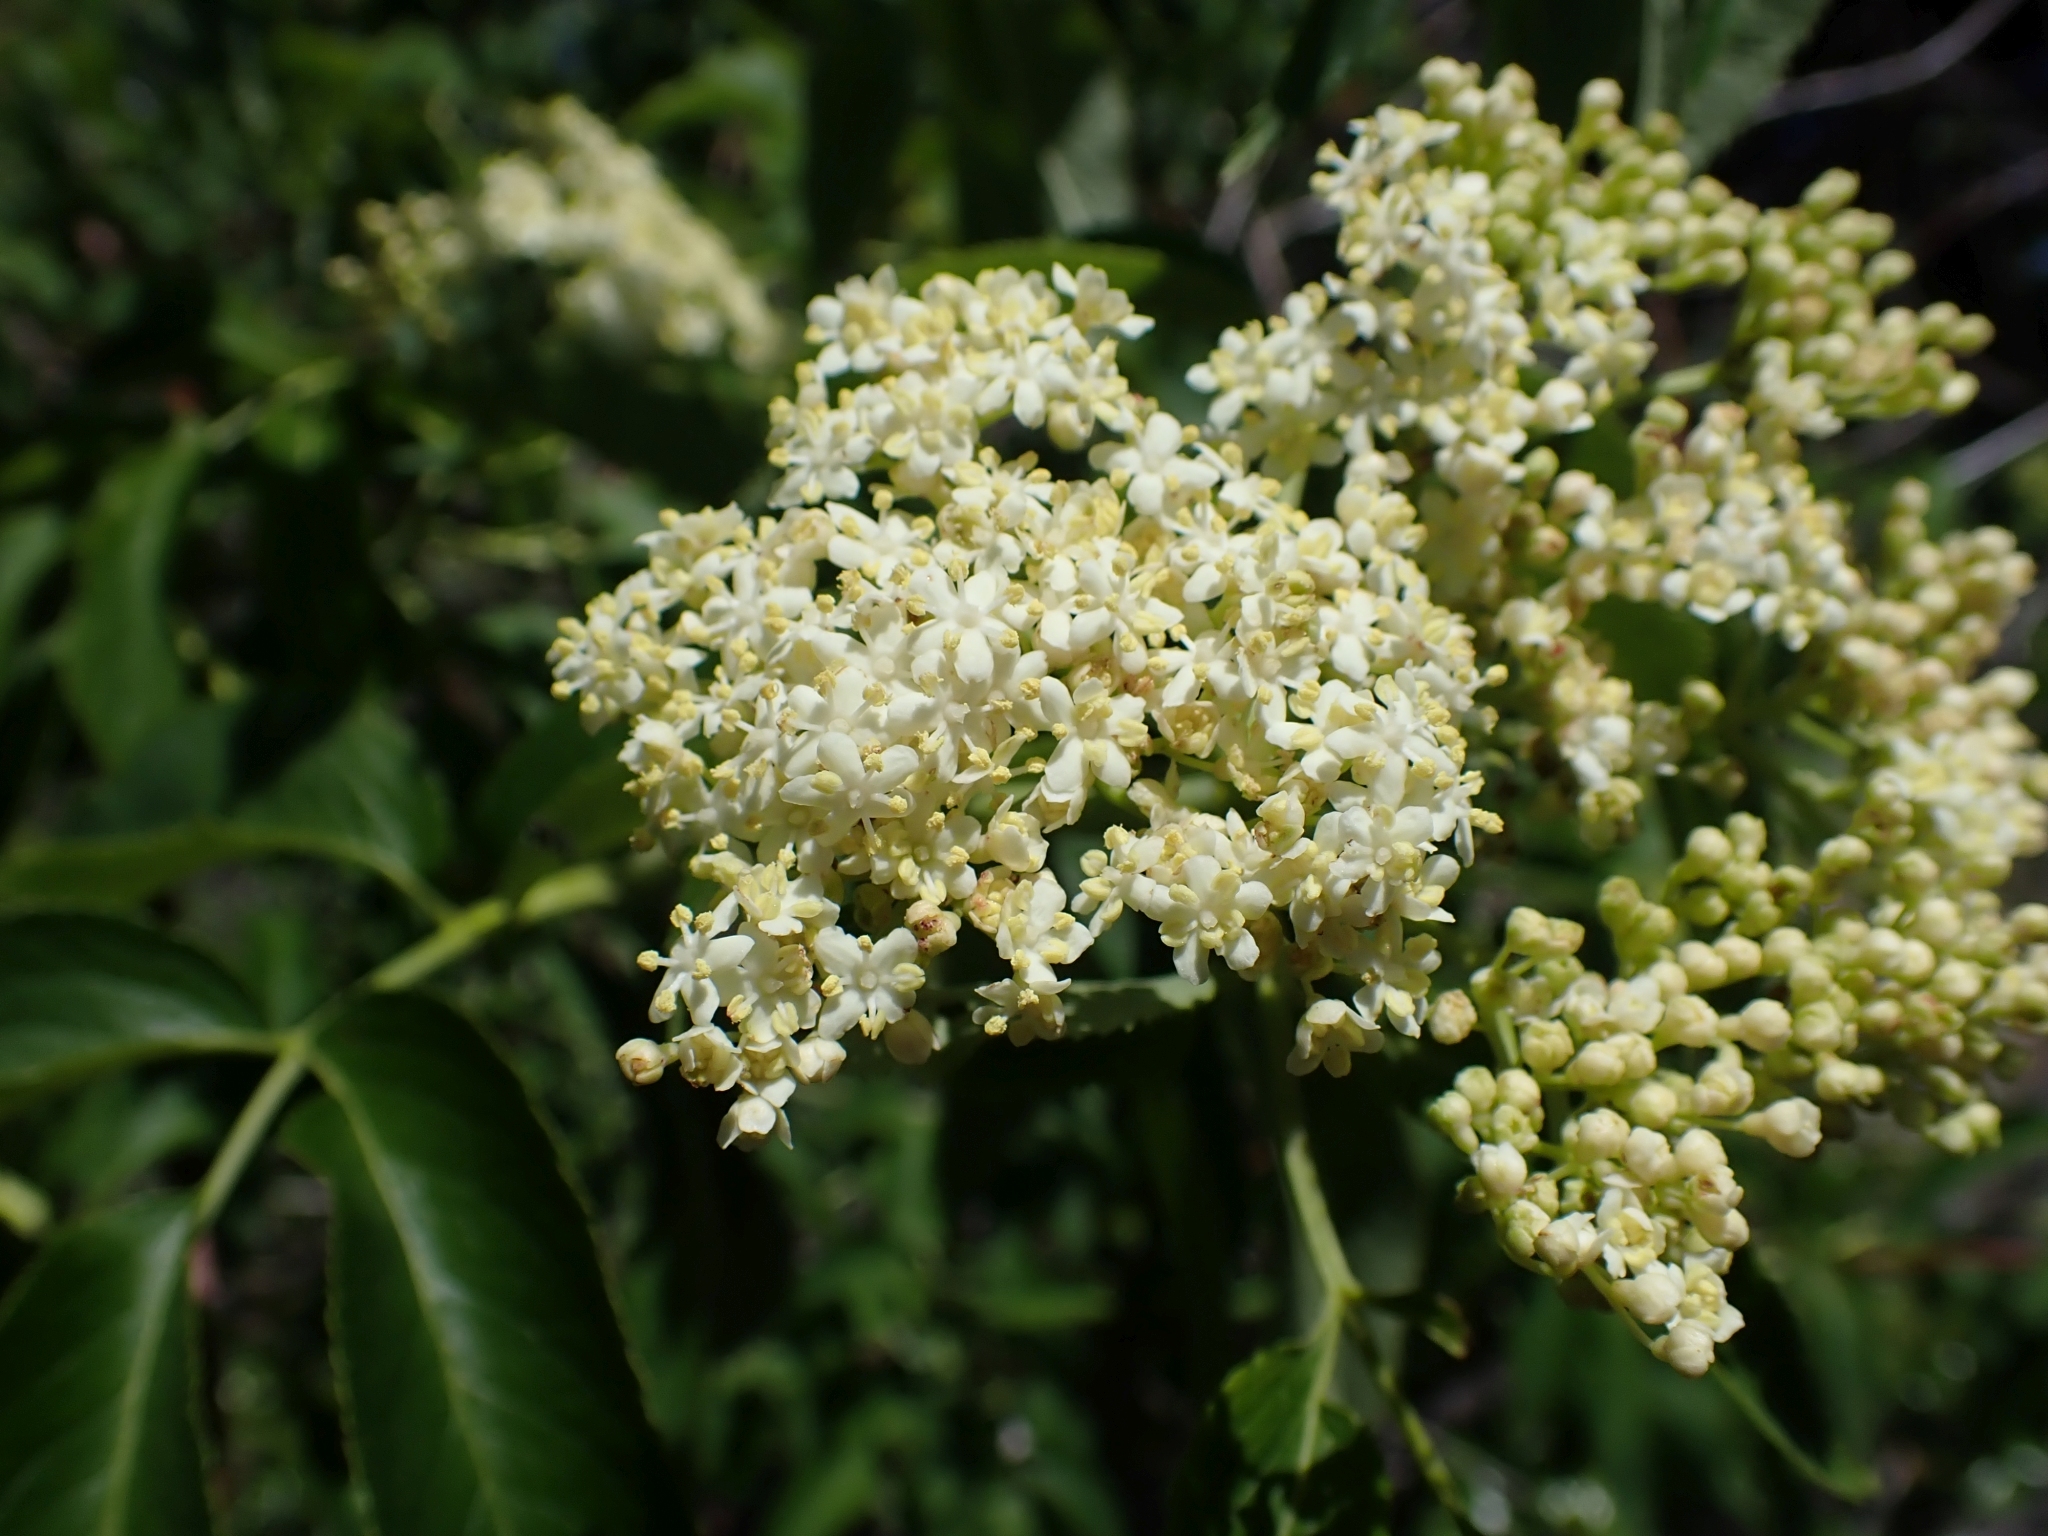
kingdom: Plantae
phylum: Tracheophyta
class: Magnoliopsida
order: Dipsacales
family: Viburnaceae
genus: Sambucus
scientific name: Sambucus cerulea
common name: Blue elder
